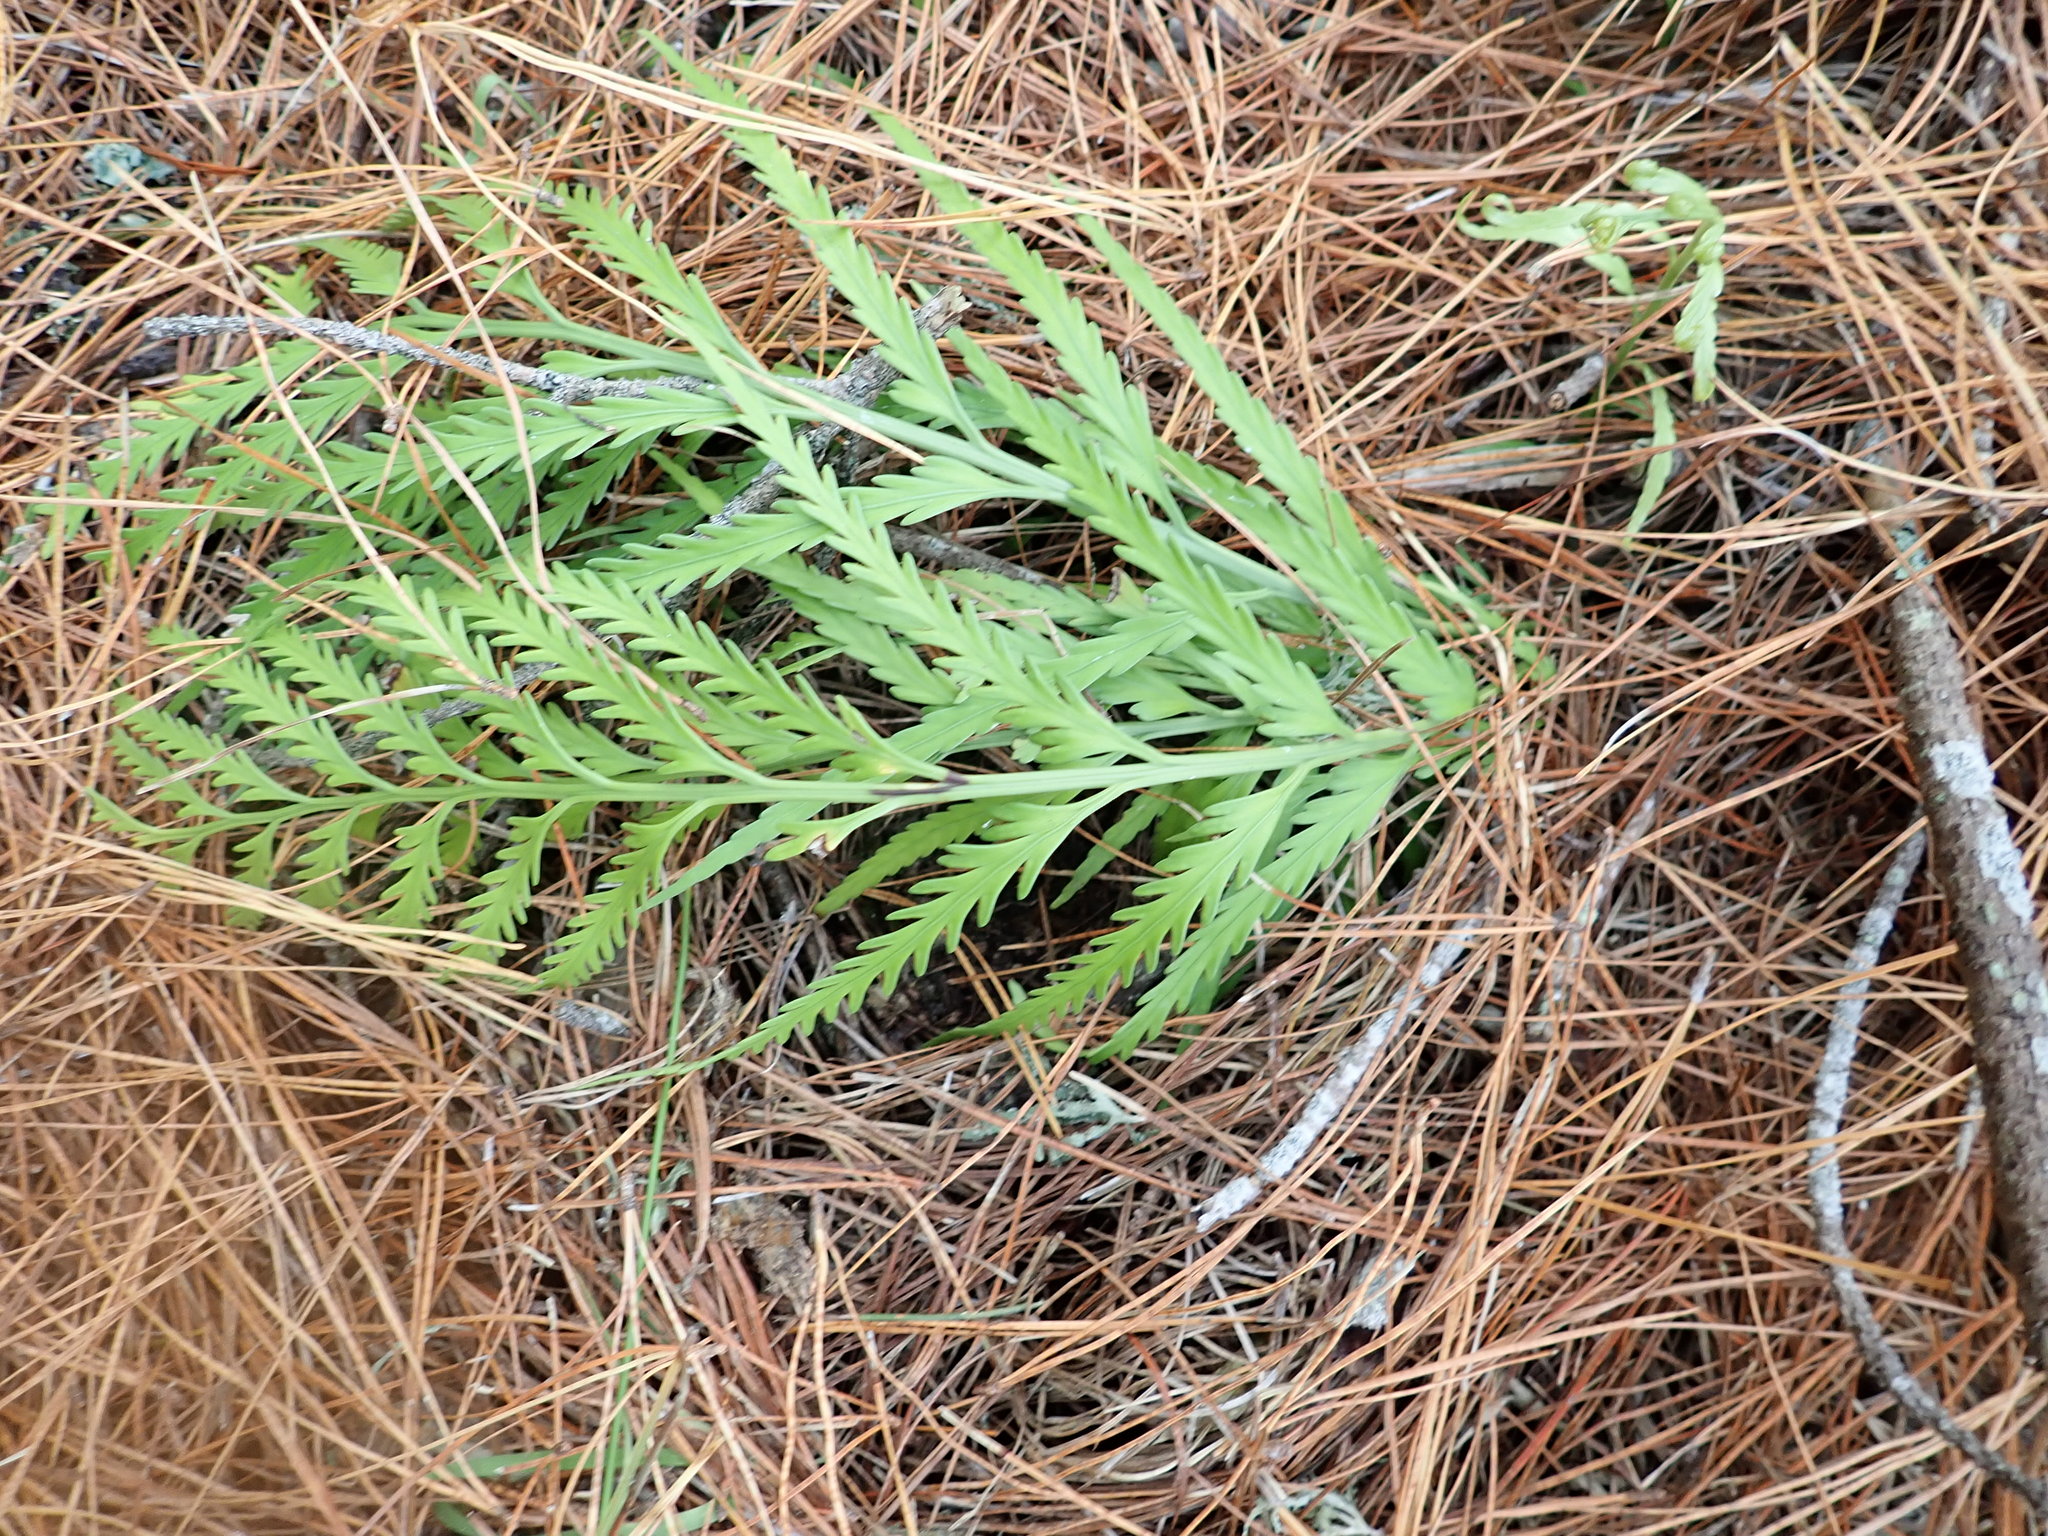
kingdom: Plantae
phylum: Tracheophyta
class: Polypodiopsida
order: Polypodiales
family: Aspleniaceae
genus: Asplenium
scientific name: Asplenium flaccidum
